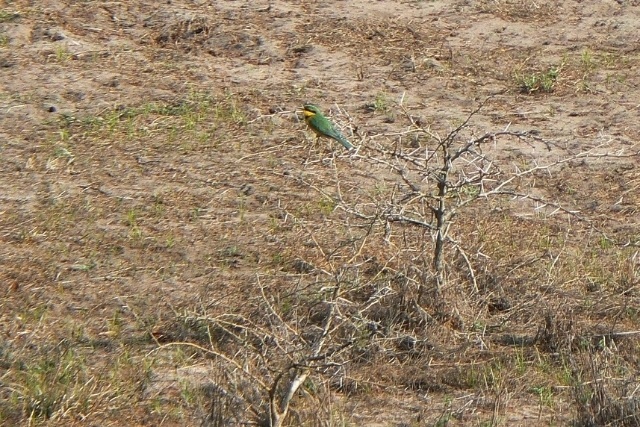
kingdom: Animalia
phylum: Chordata
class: Aves
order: Coraciiformes
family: Meropidae
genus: Merops
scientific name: Merops pusillus
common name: Little bee-eater
